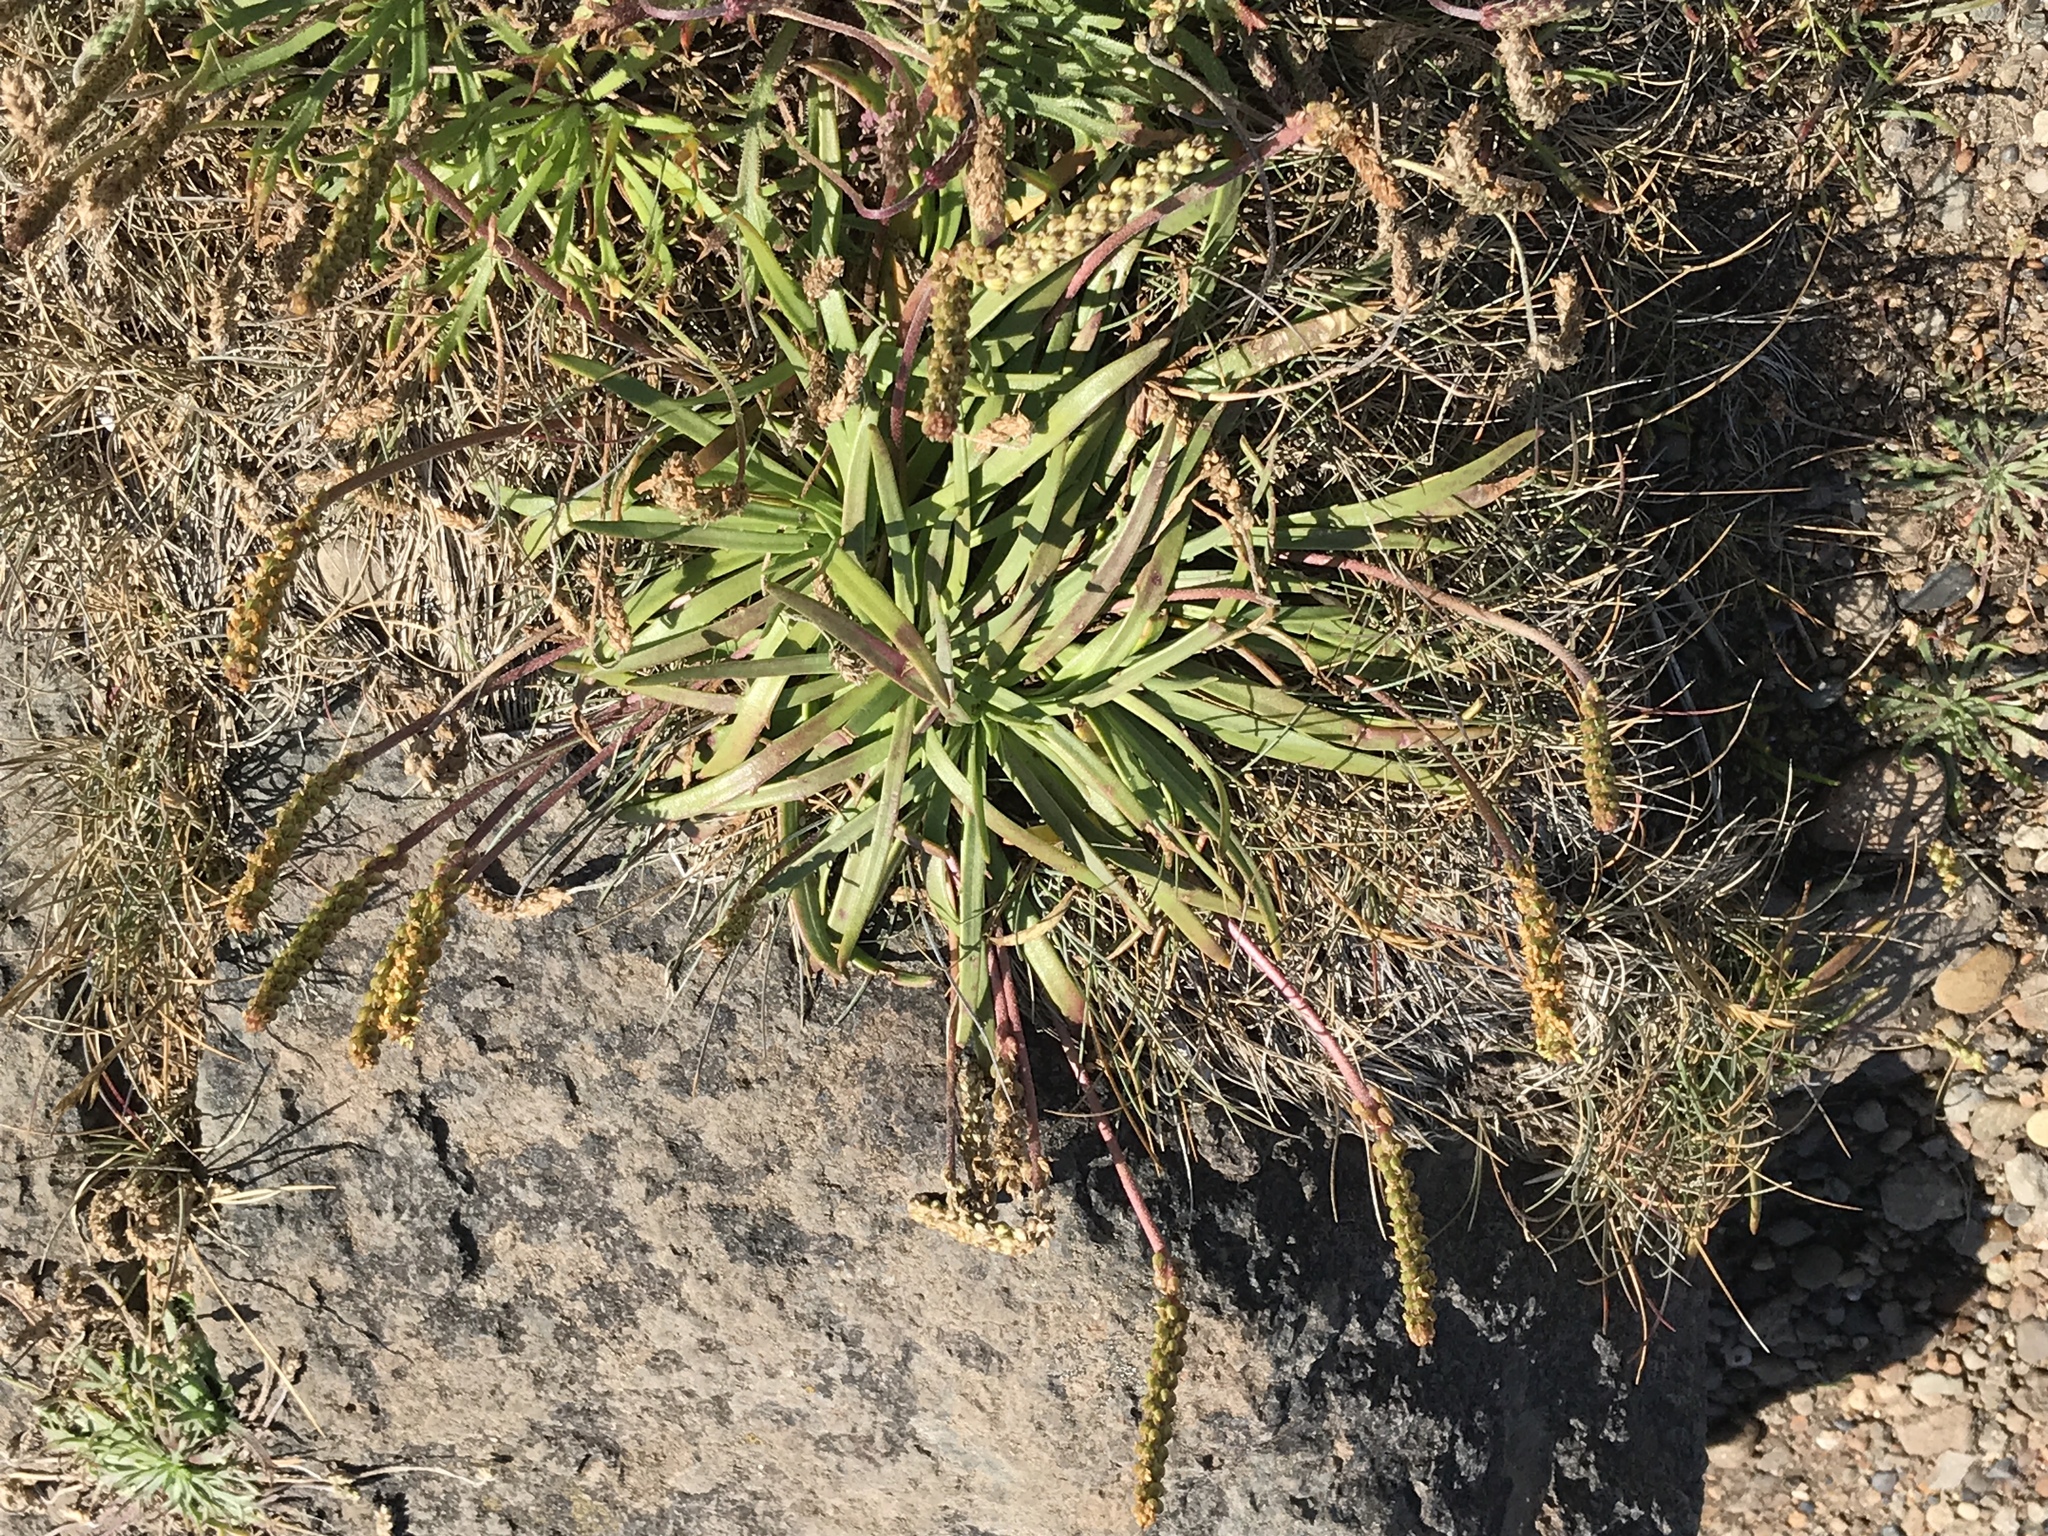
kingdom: Plantae
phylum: Tracheophyta
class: Magnoliopsida
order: Lamiales
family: Plantaginaceae
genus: Plantago
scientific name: Plantago maritima
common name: Sea plantain
